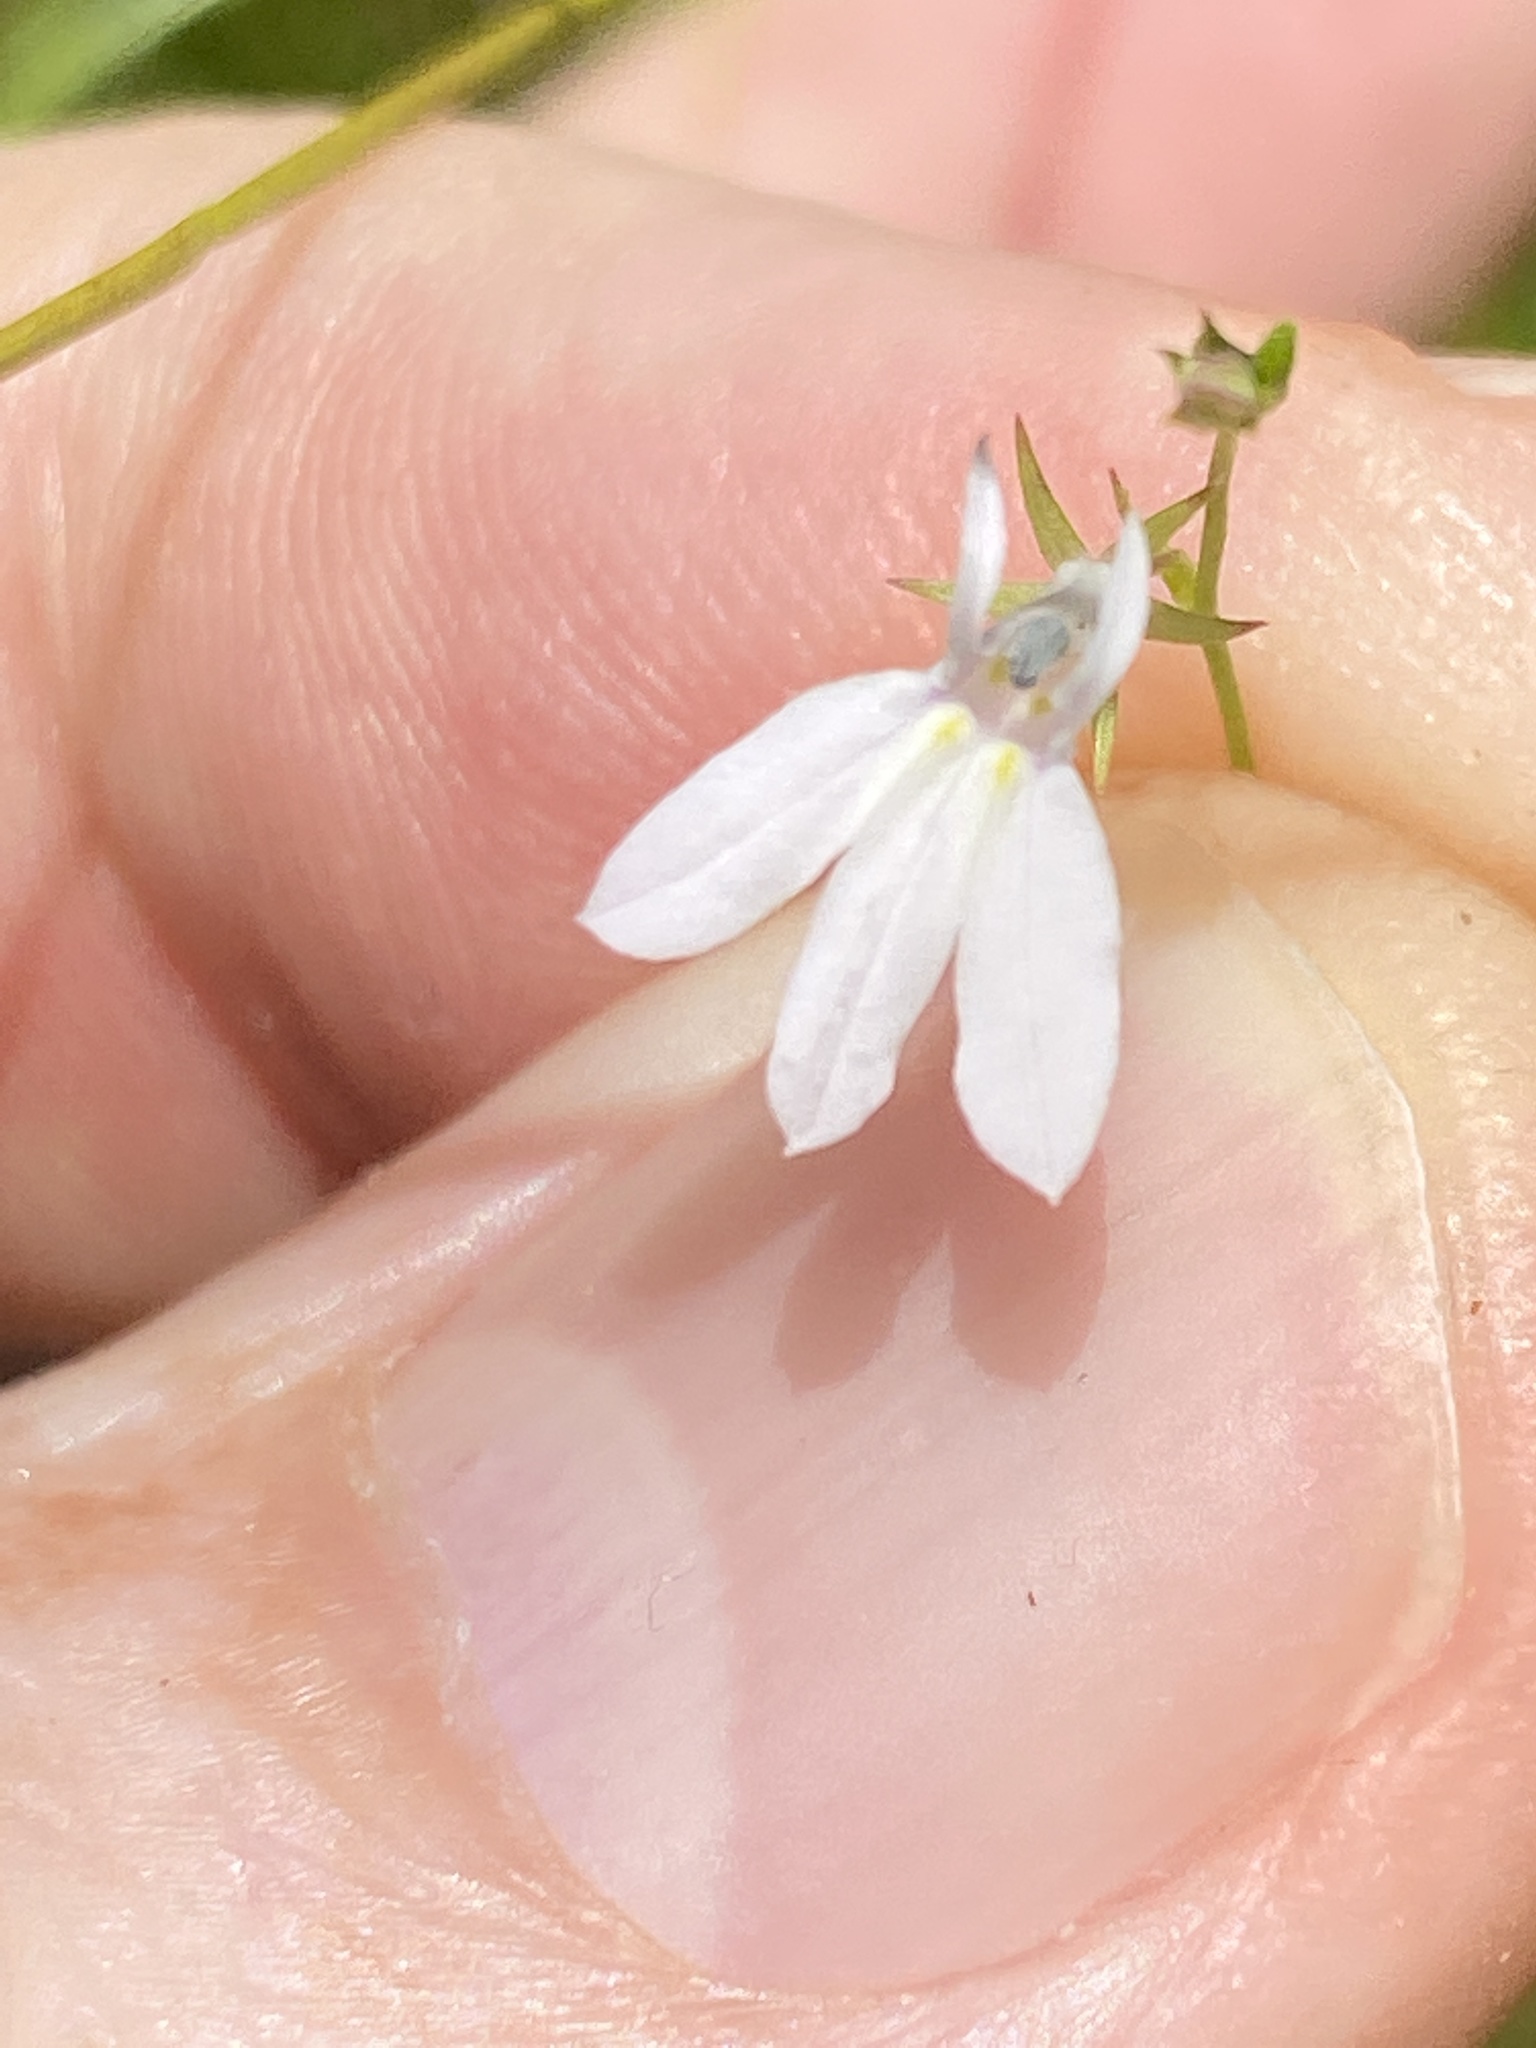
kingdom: Plantae
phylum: Tracheophyta
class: Magnoliopsida
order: Asterales
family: Campanulaceae
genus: Lobelia
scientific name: Lobelia nuttallii
